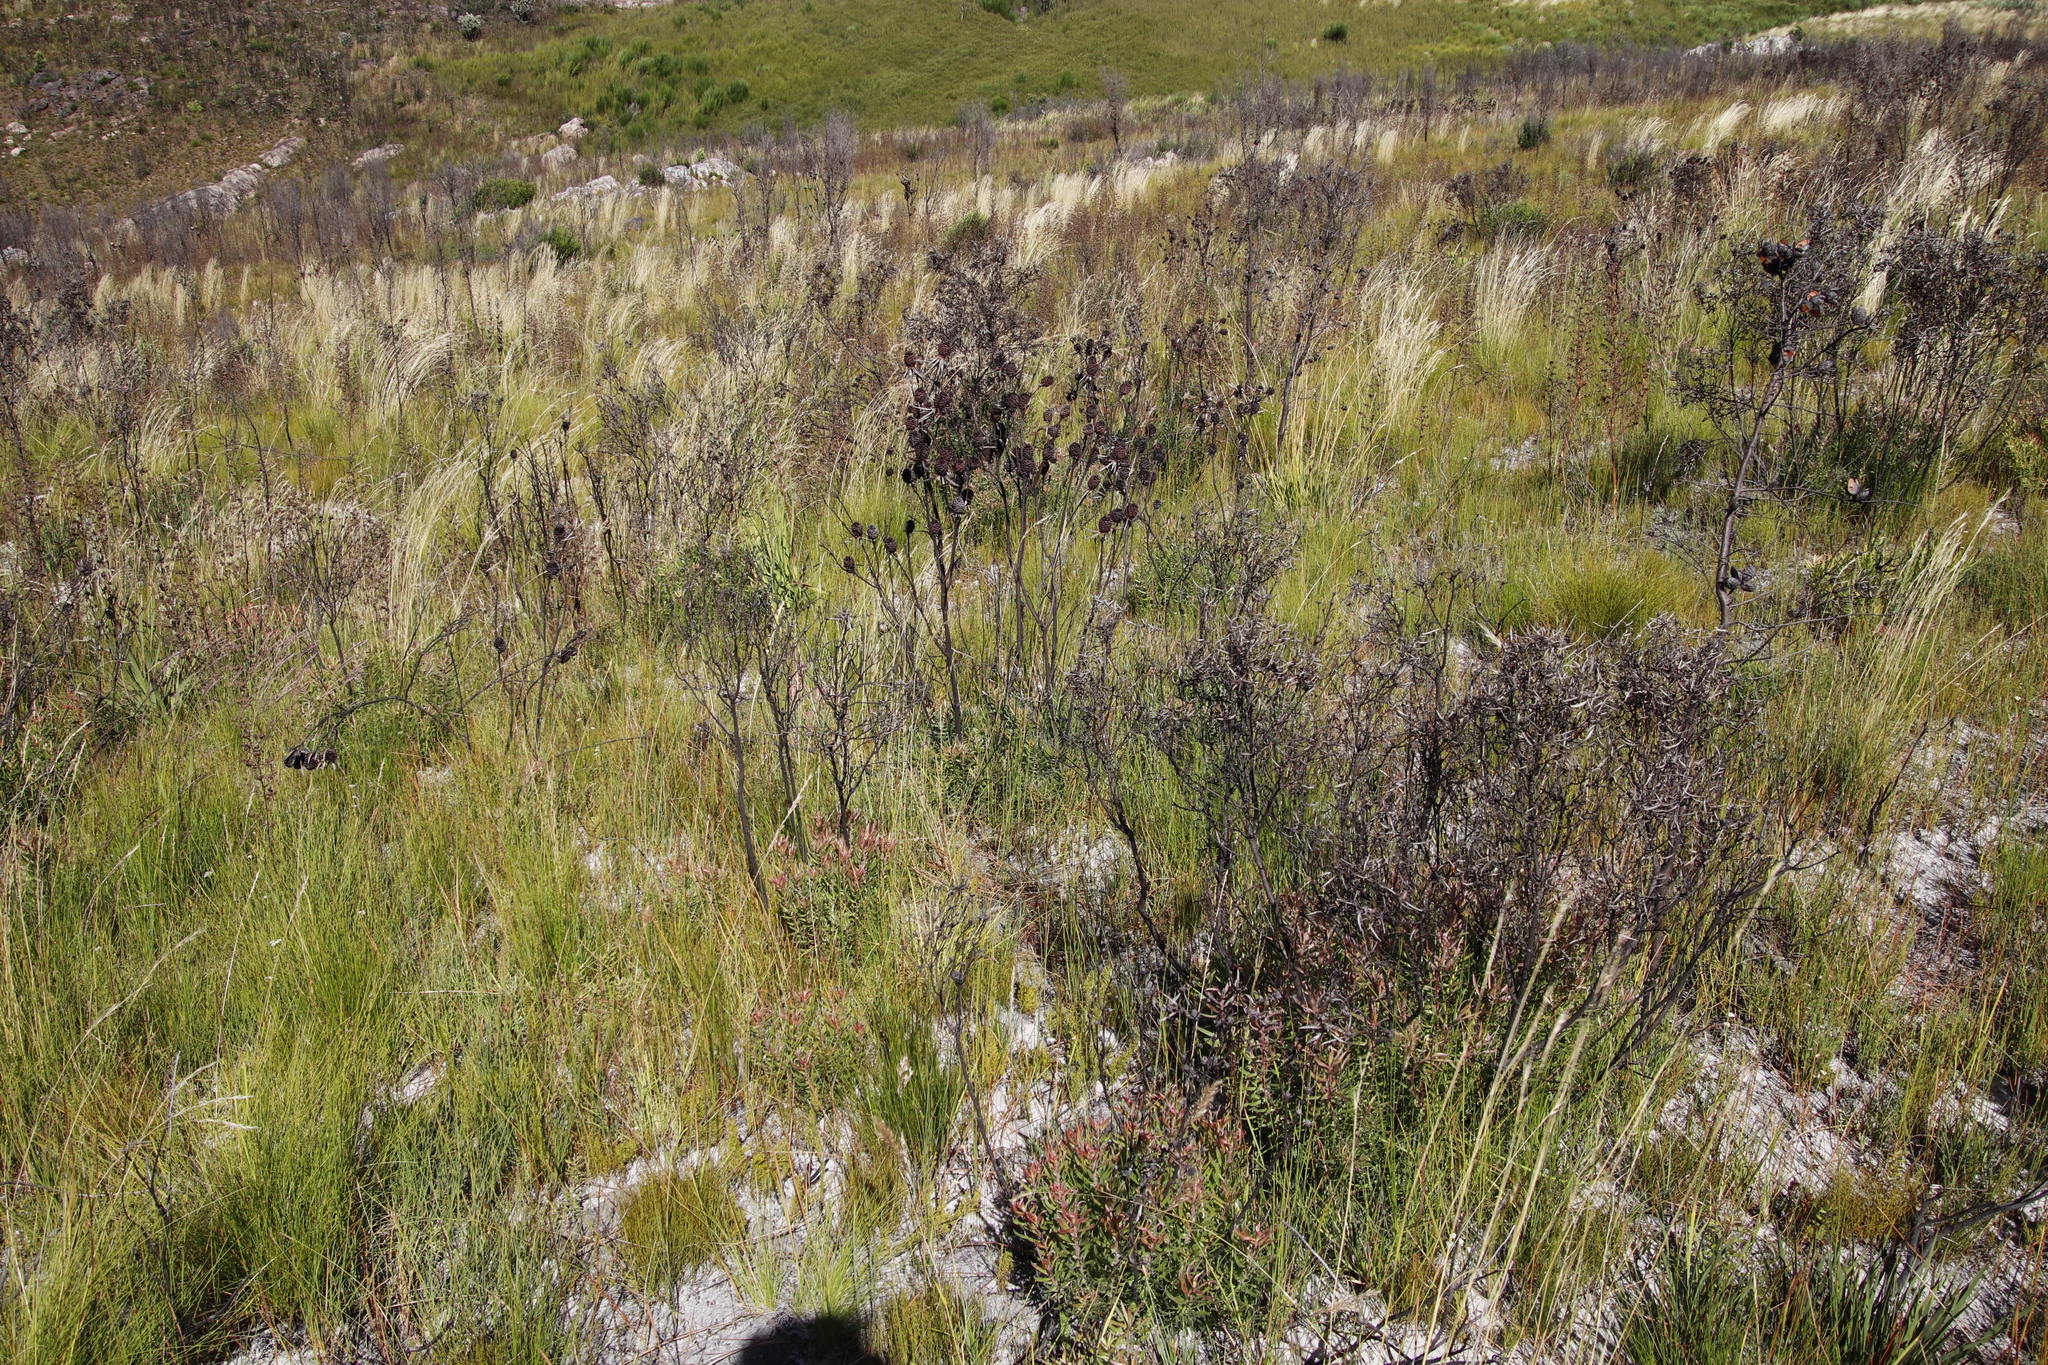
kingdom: Plantae
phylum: Tracheophyta
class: Magnoliopsida
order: Proteales
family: Proteaceae
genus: Leucadendron
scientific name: Leucadendron spissifolium
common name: Spear-leaf conebush
